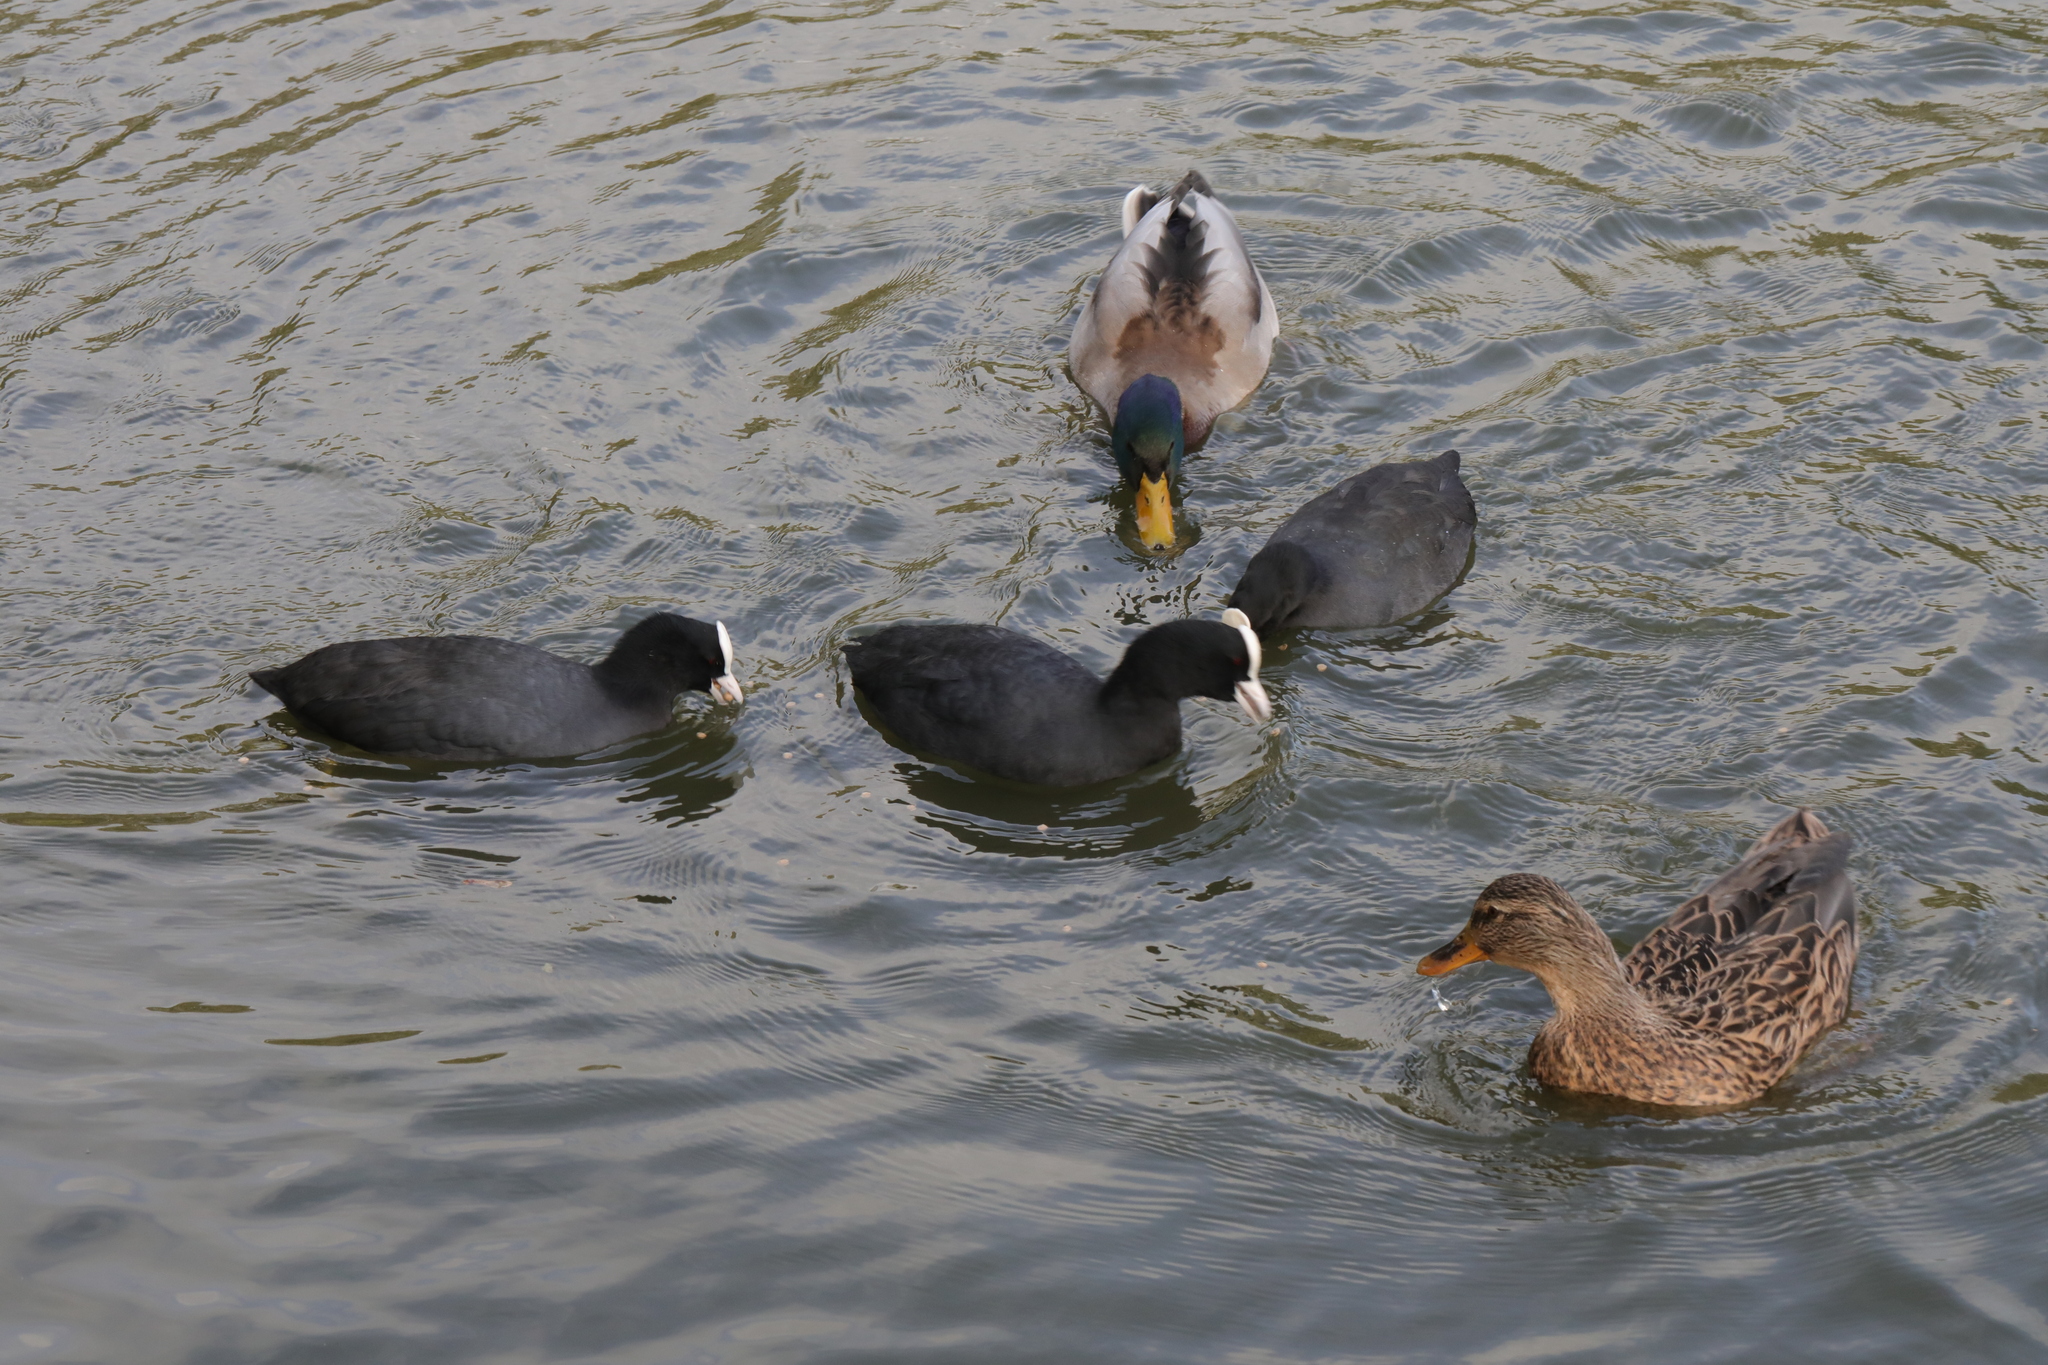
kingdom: Animalia
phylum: Chordata
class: Aves
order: Gruiformes
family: Rallidae
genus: Fulica
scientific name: Fulica atra
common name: Eurasian coot
